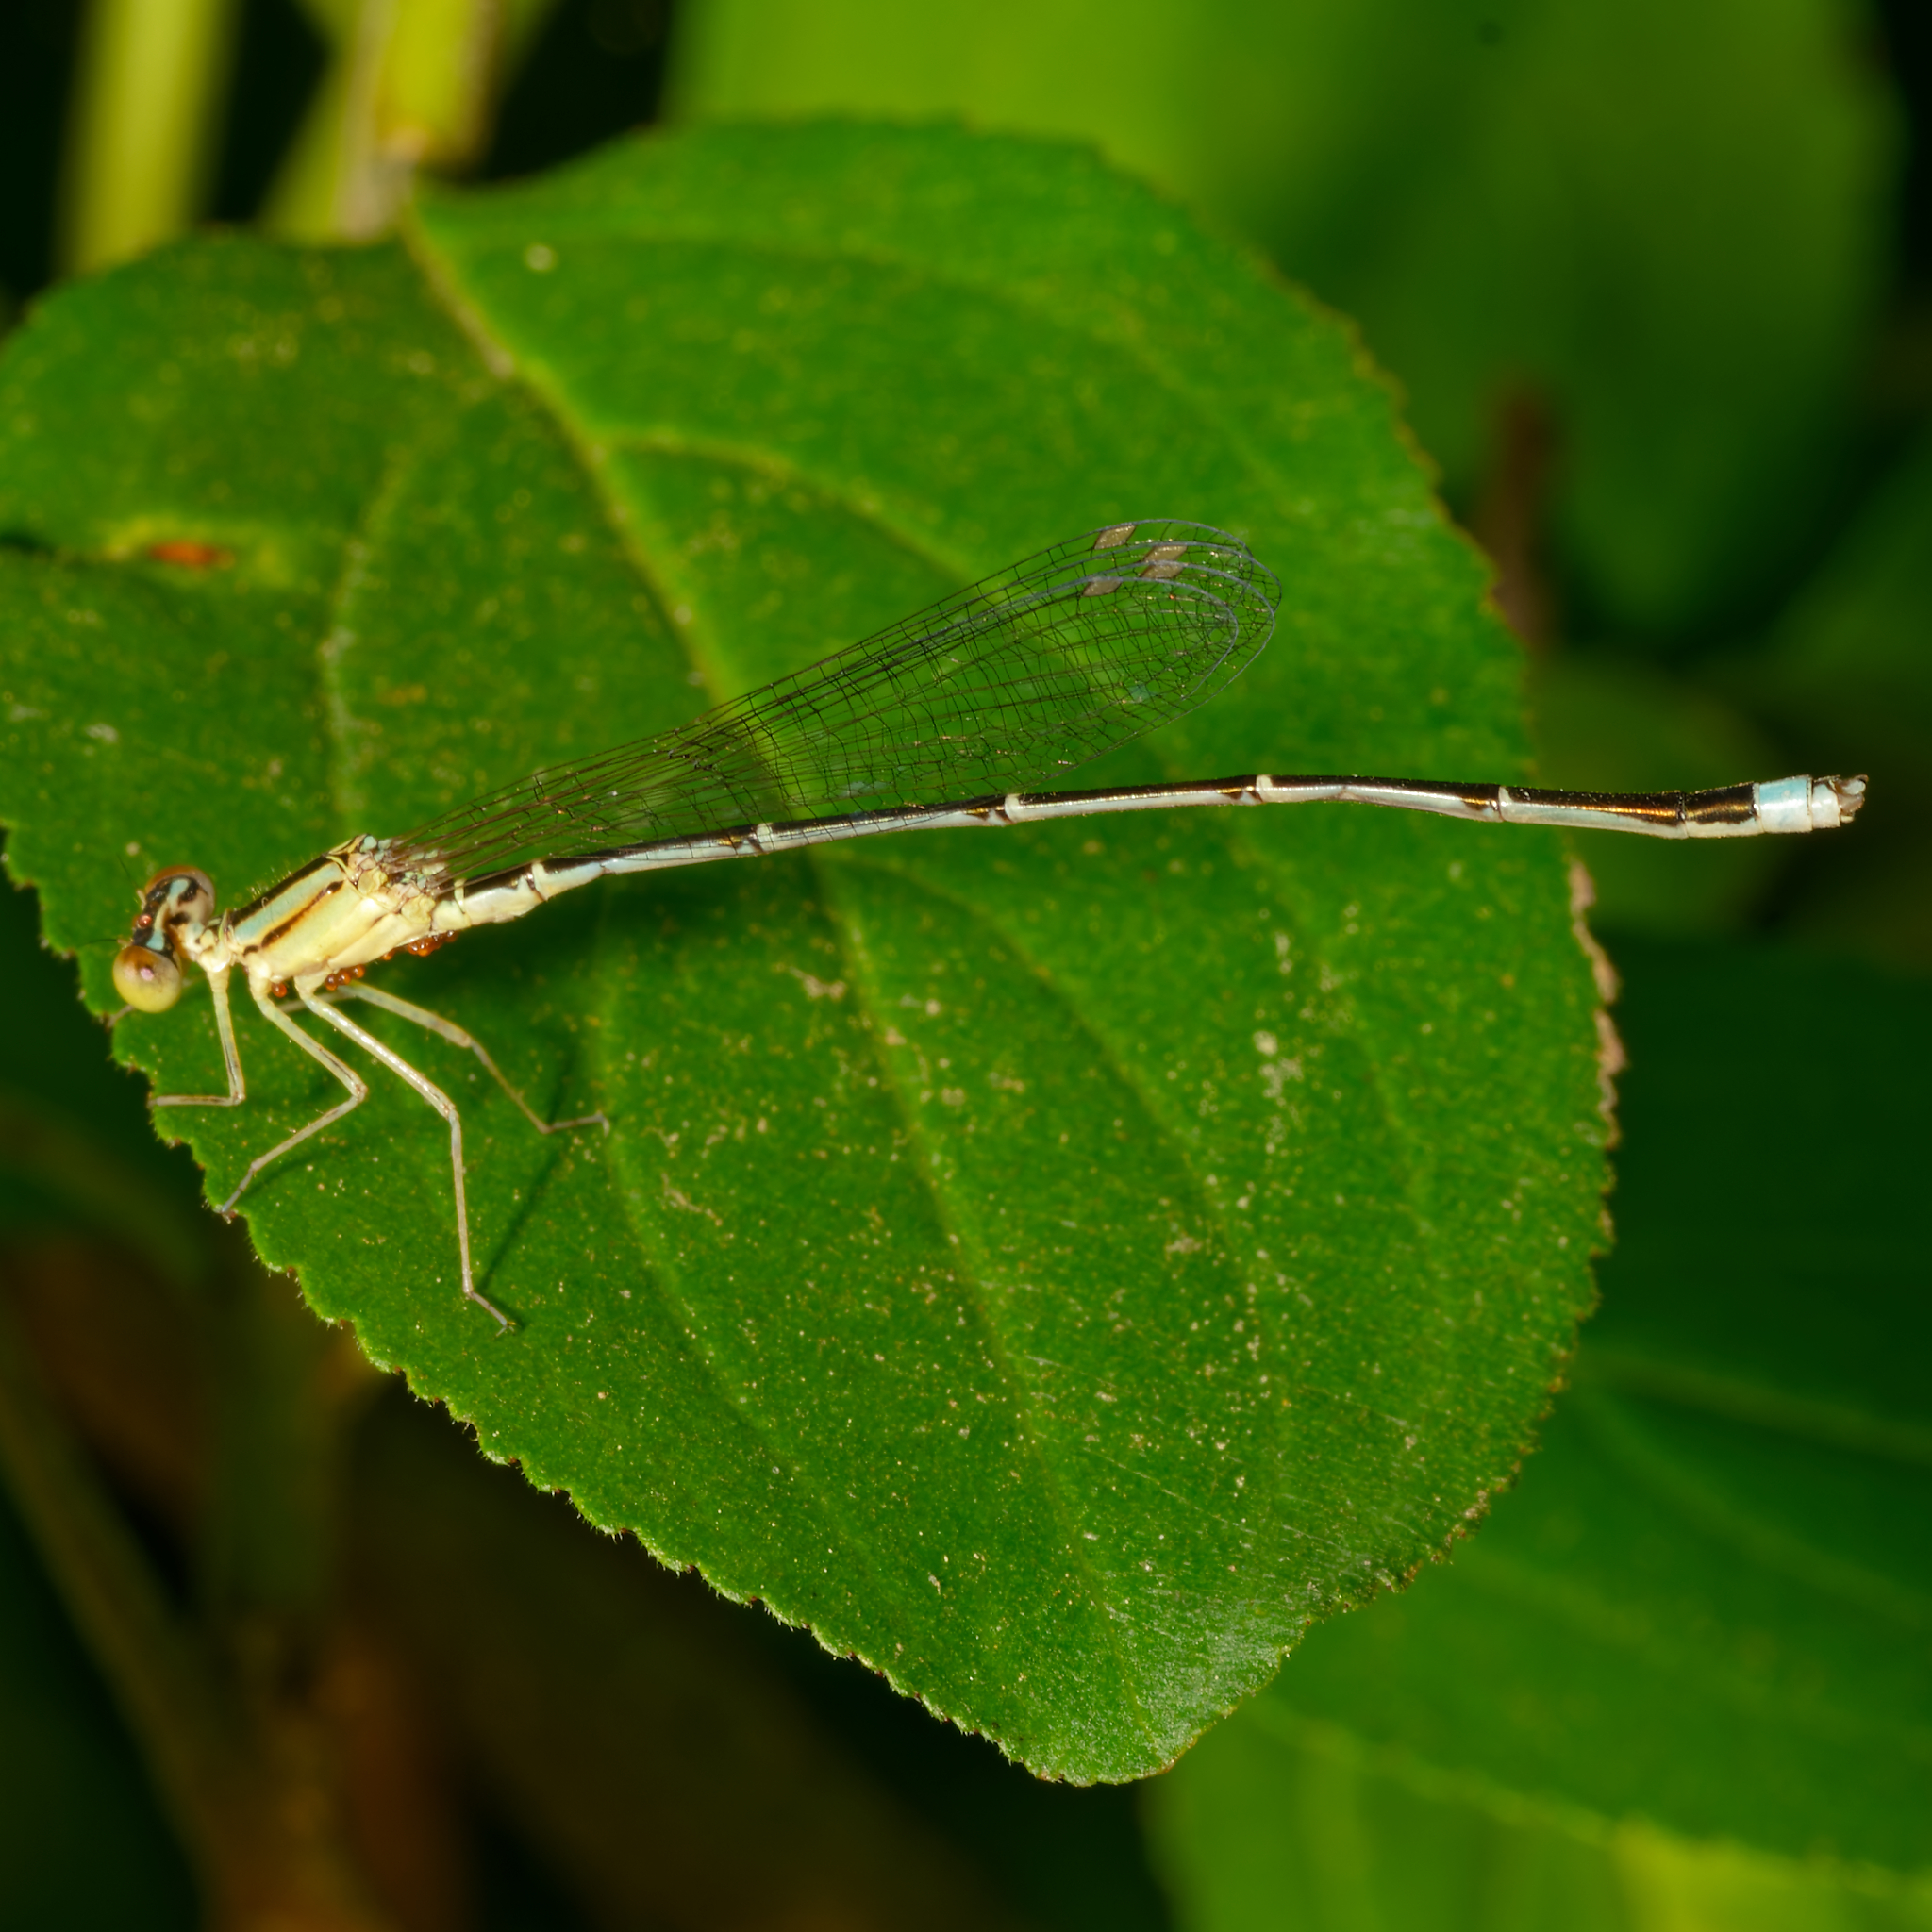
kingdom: Animalia
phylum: Arthropoda
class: Insecta
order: Odonata
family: Coenagrionidae
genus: Enallagma
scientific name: Enallagma vesperum
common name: Vesper bluet
